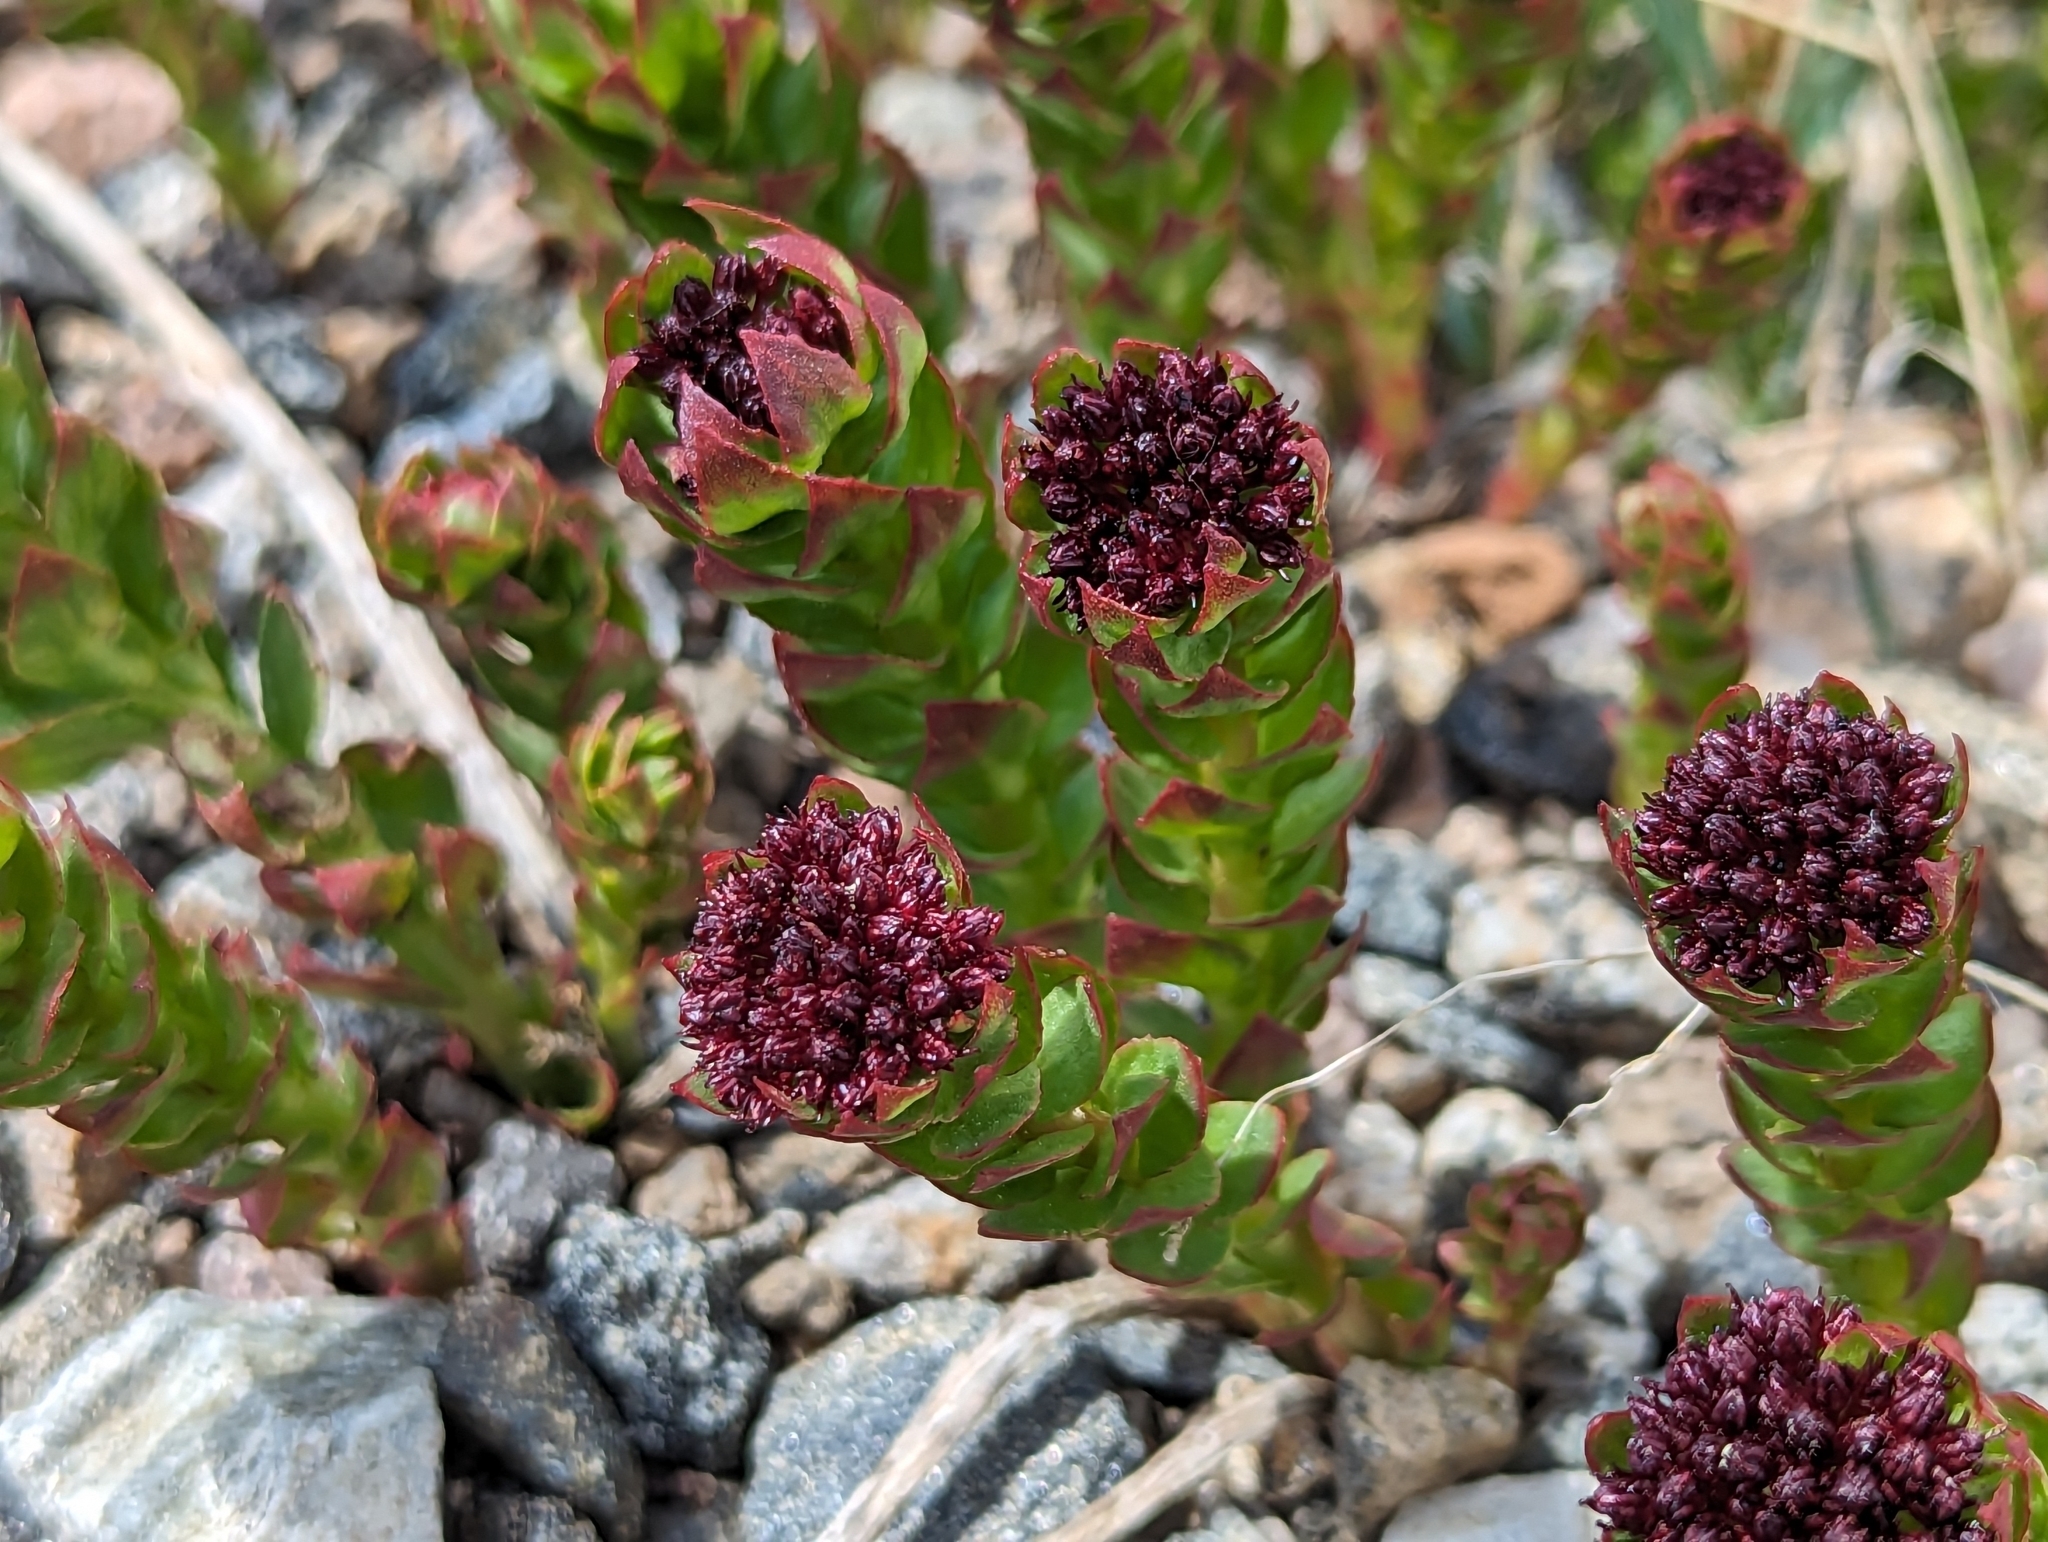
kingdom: Plantae
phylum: Tracheophyta
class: Magnoliopsida
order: Saxifragales
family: Crassulaceae
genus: Rhodiola
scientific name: Rhodiola integrifolia
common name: Western roseroot
